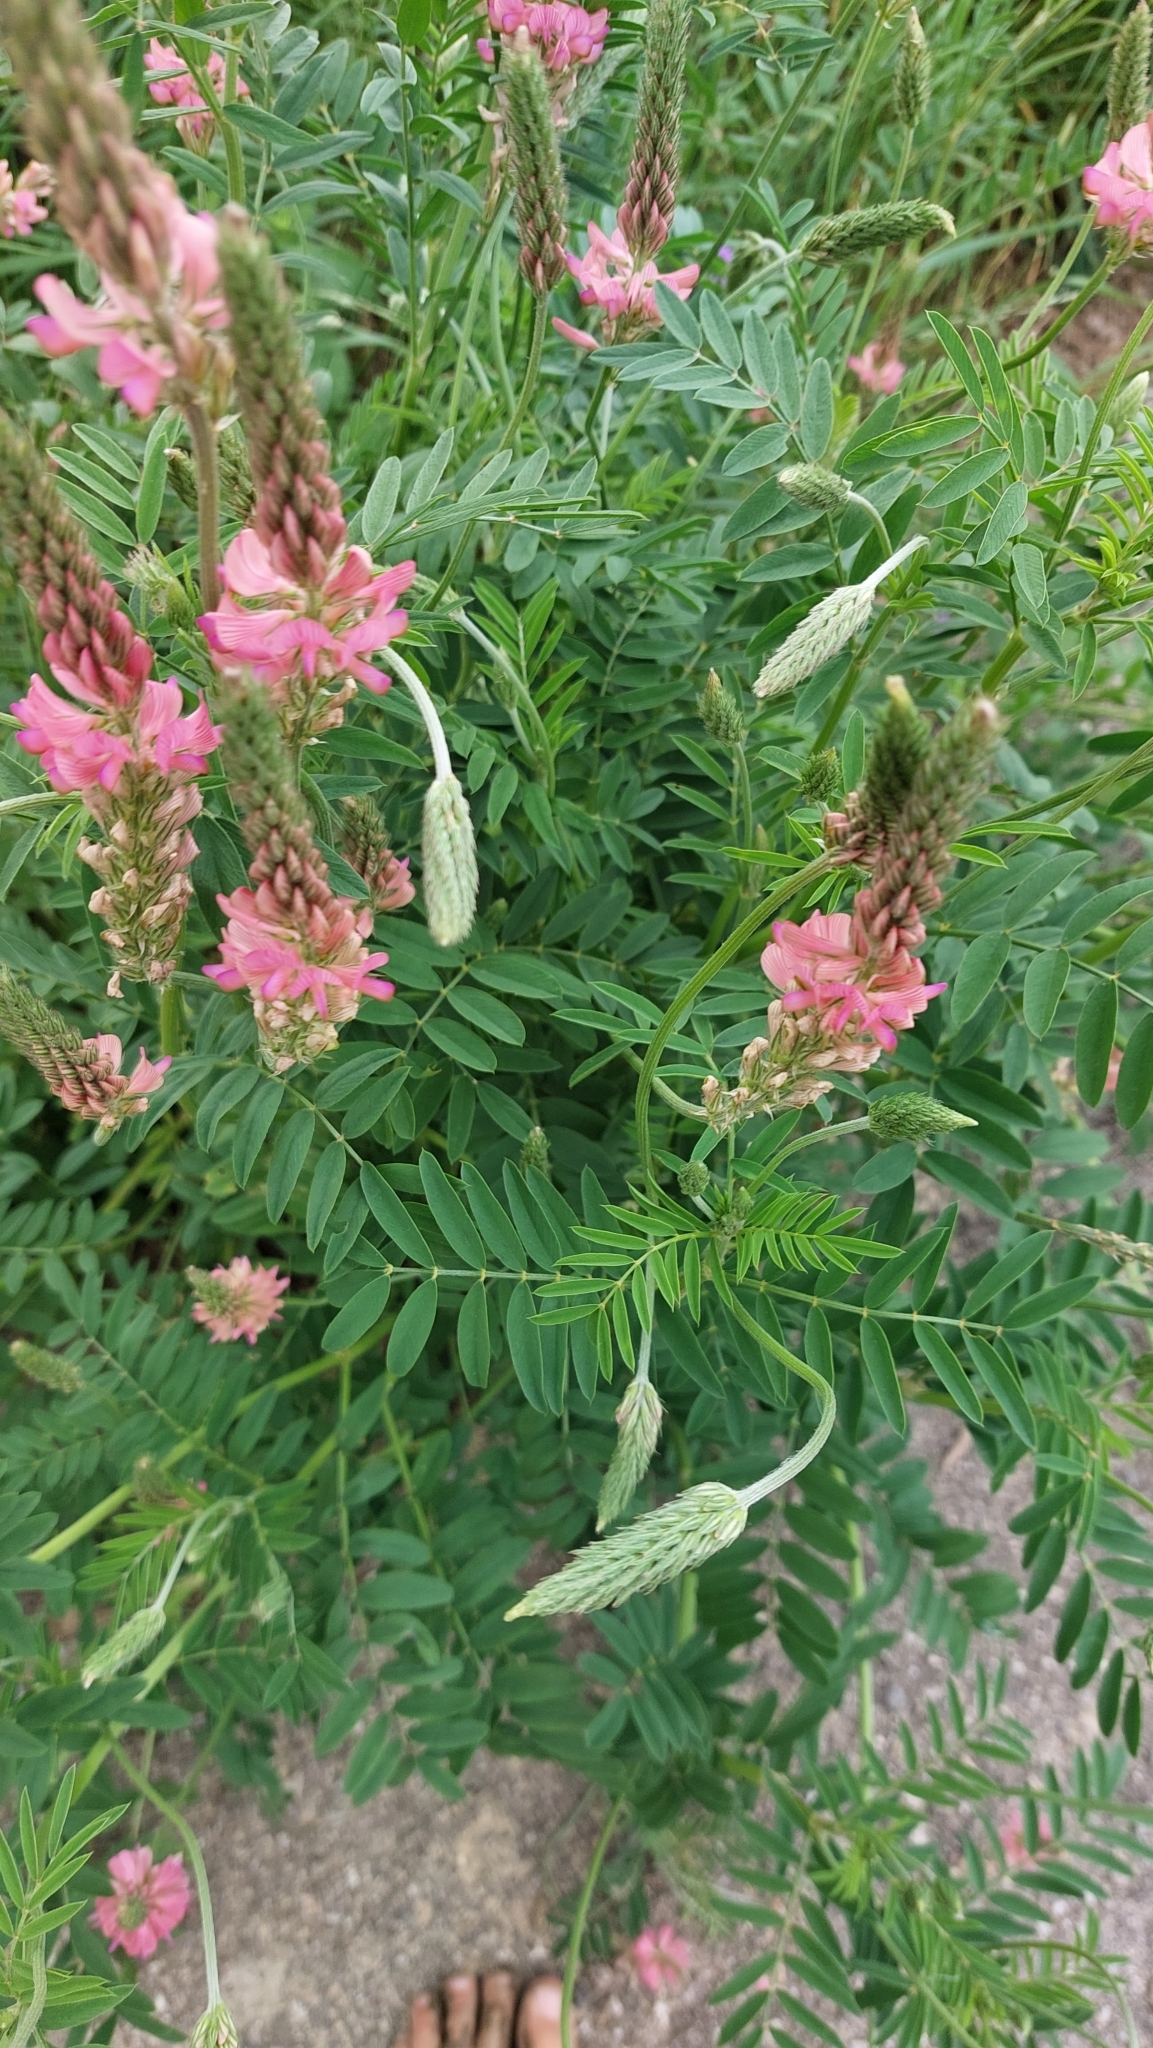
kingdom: Plantae
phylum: Tracheophyta
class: Magnoliopsida
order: Fabales
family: Fabaceae
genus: Onobrychis
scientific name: Onobrychis viciifolia
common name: Sainfoin
